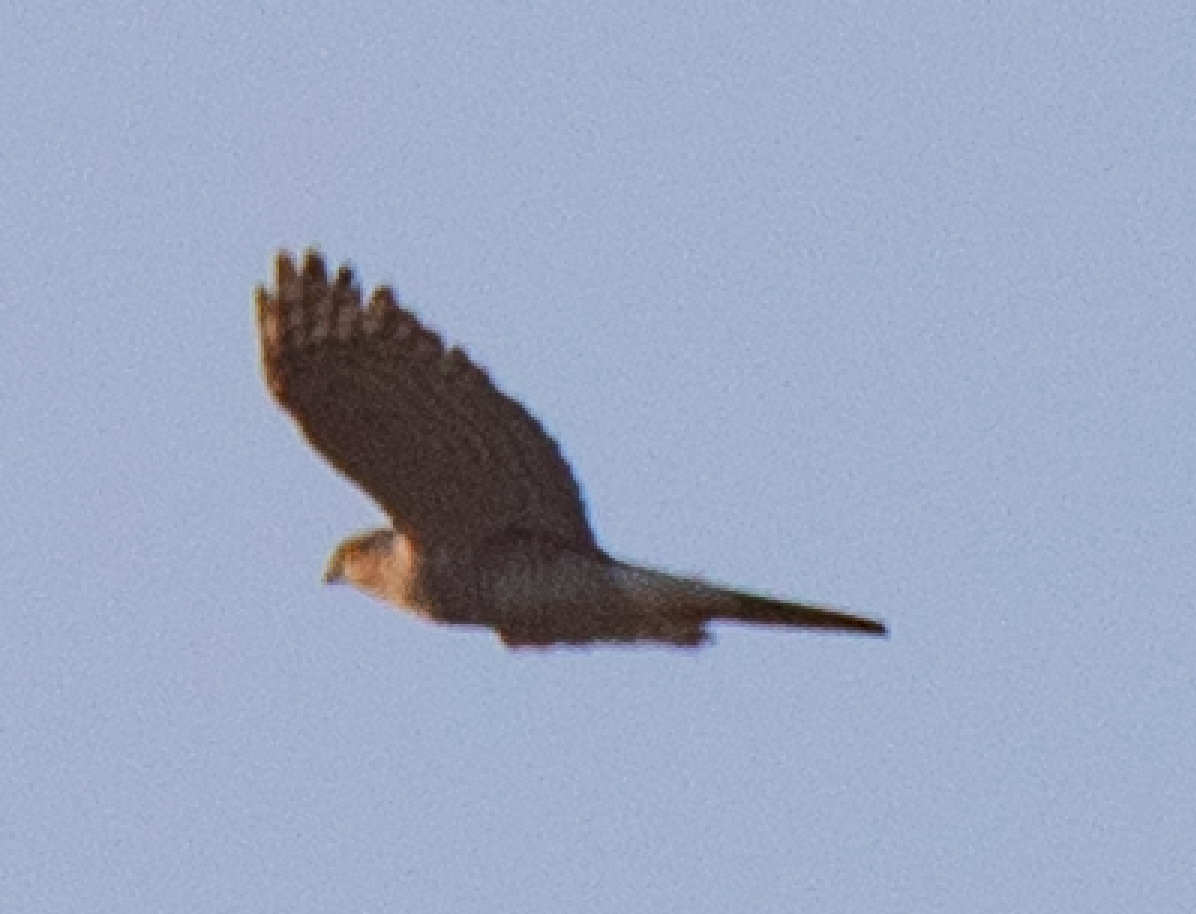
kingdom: Animalia
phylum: Chordata
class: Aves
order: Accipitriformes
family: Accipitridae
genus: Accipiter
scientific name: Accipiter nisus
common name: Eurasian sparrowhawk
